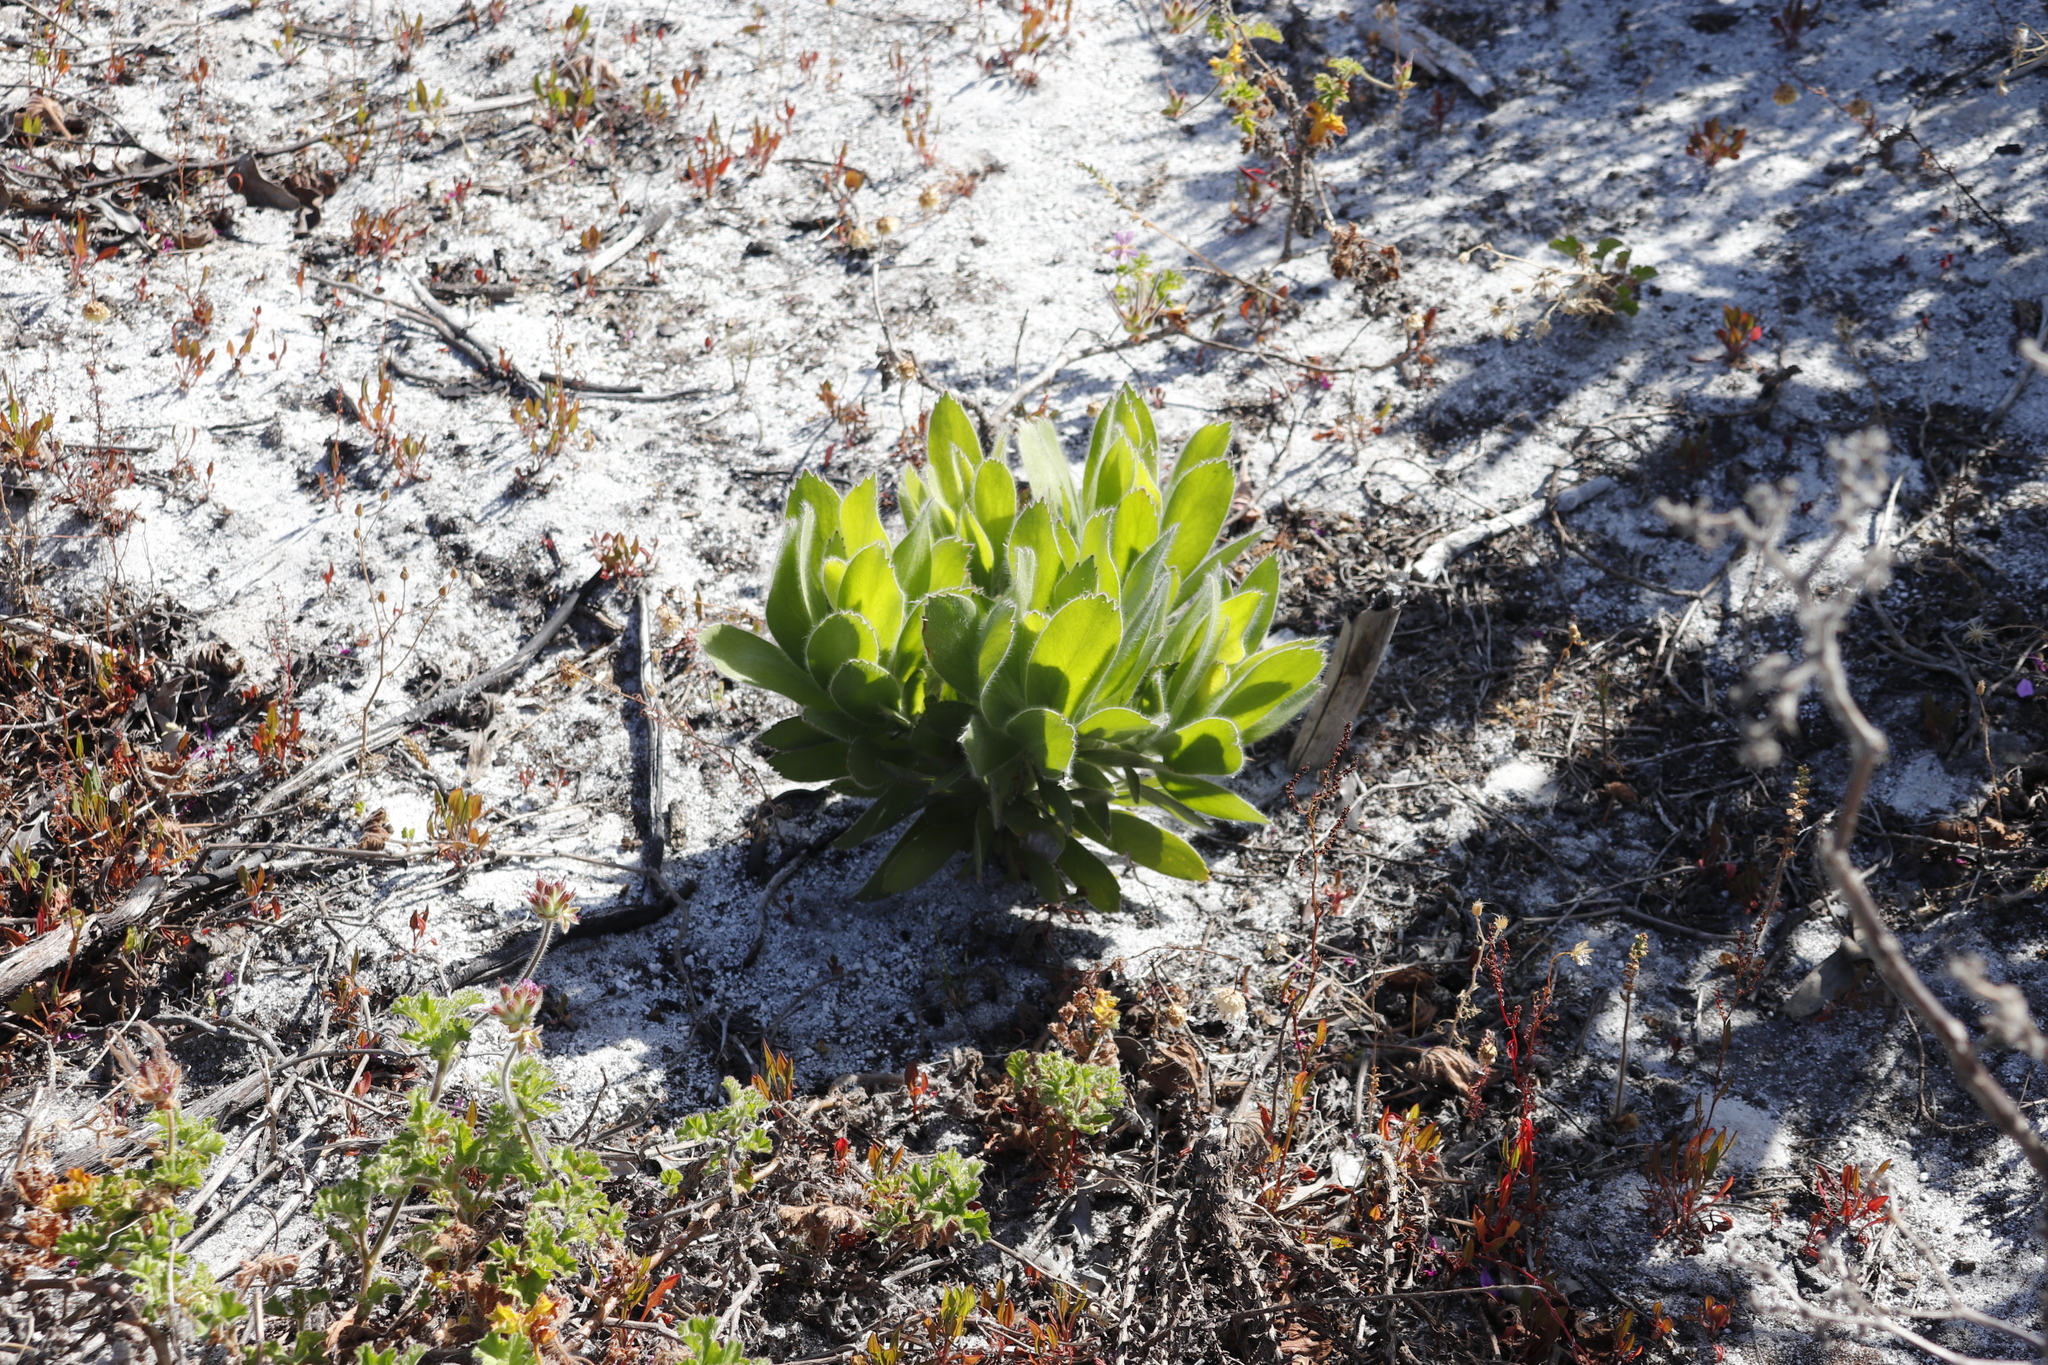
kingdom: Plantae
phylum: Tracheophyta
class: Magnoliopsida
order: Proteales
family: Proteaceae
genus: Leucospermum
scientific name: Leucospermum conocarpodendron
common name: Tree pincushion
